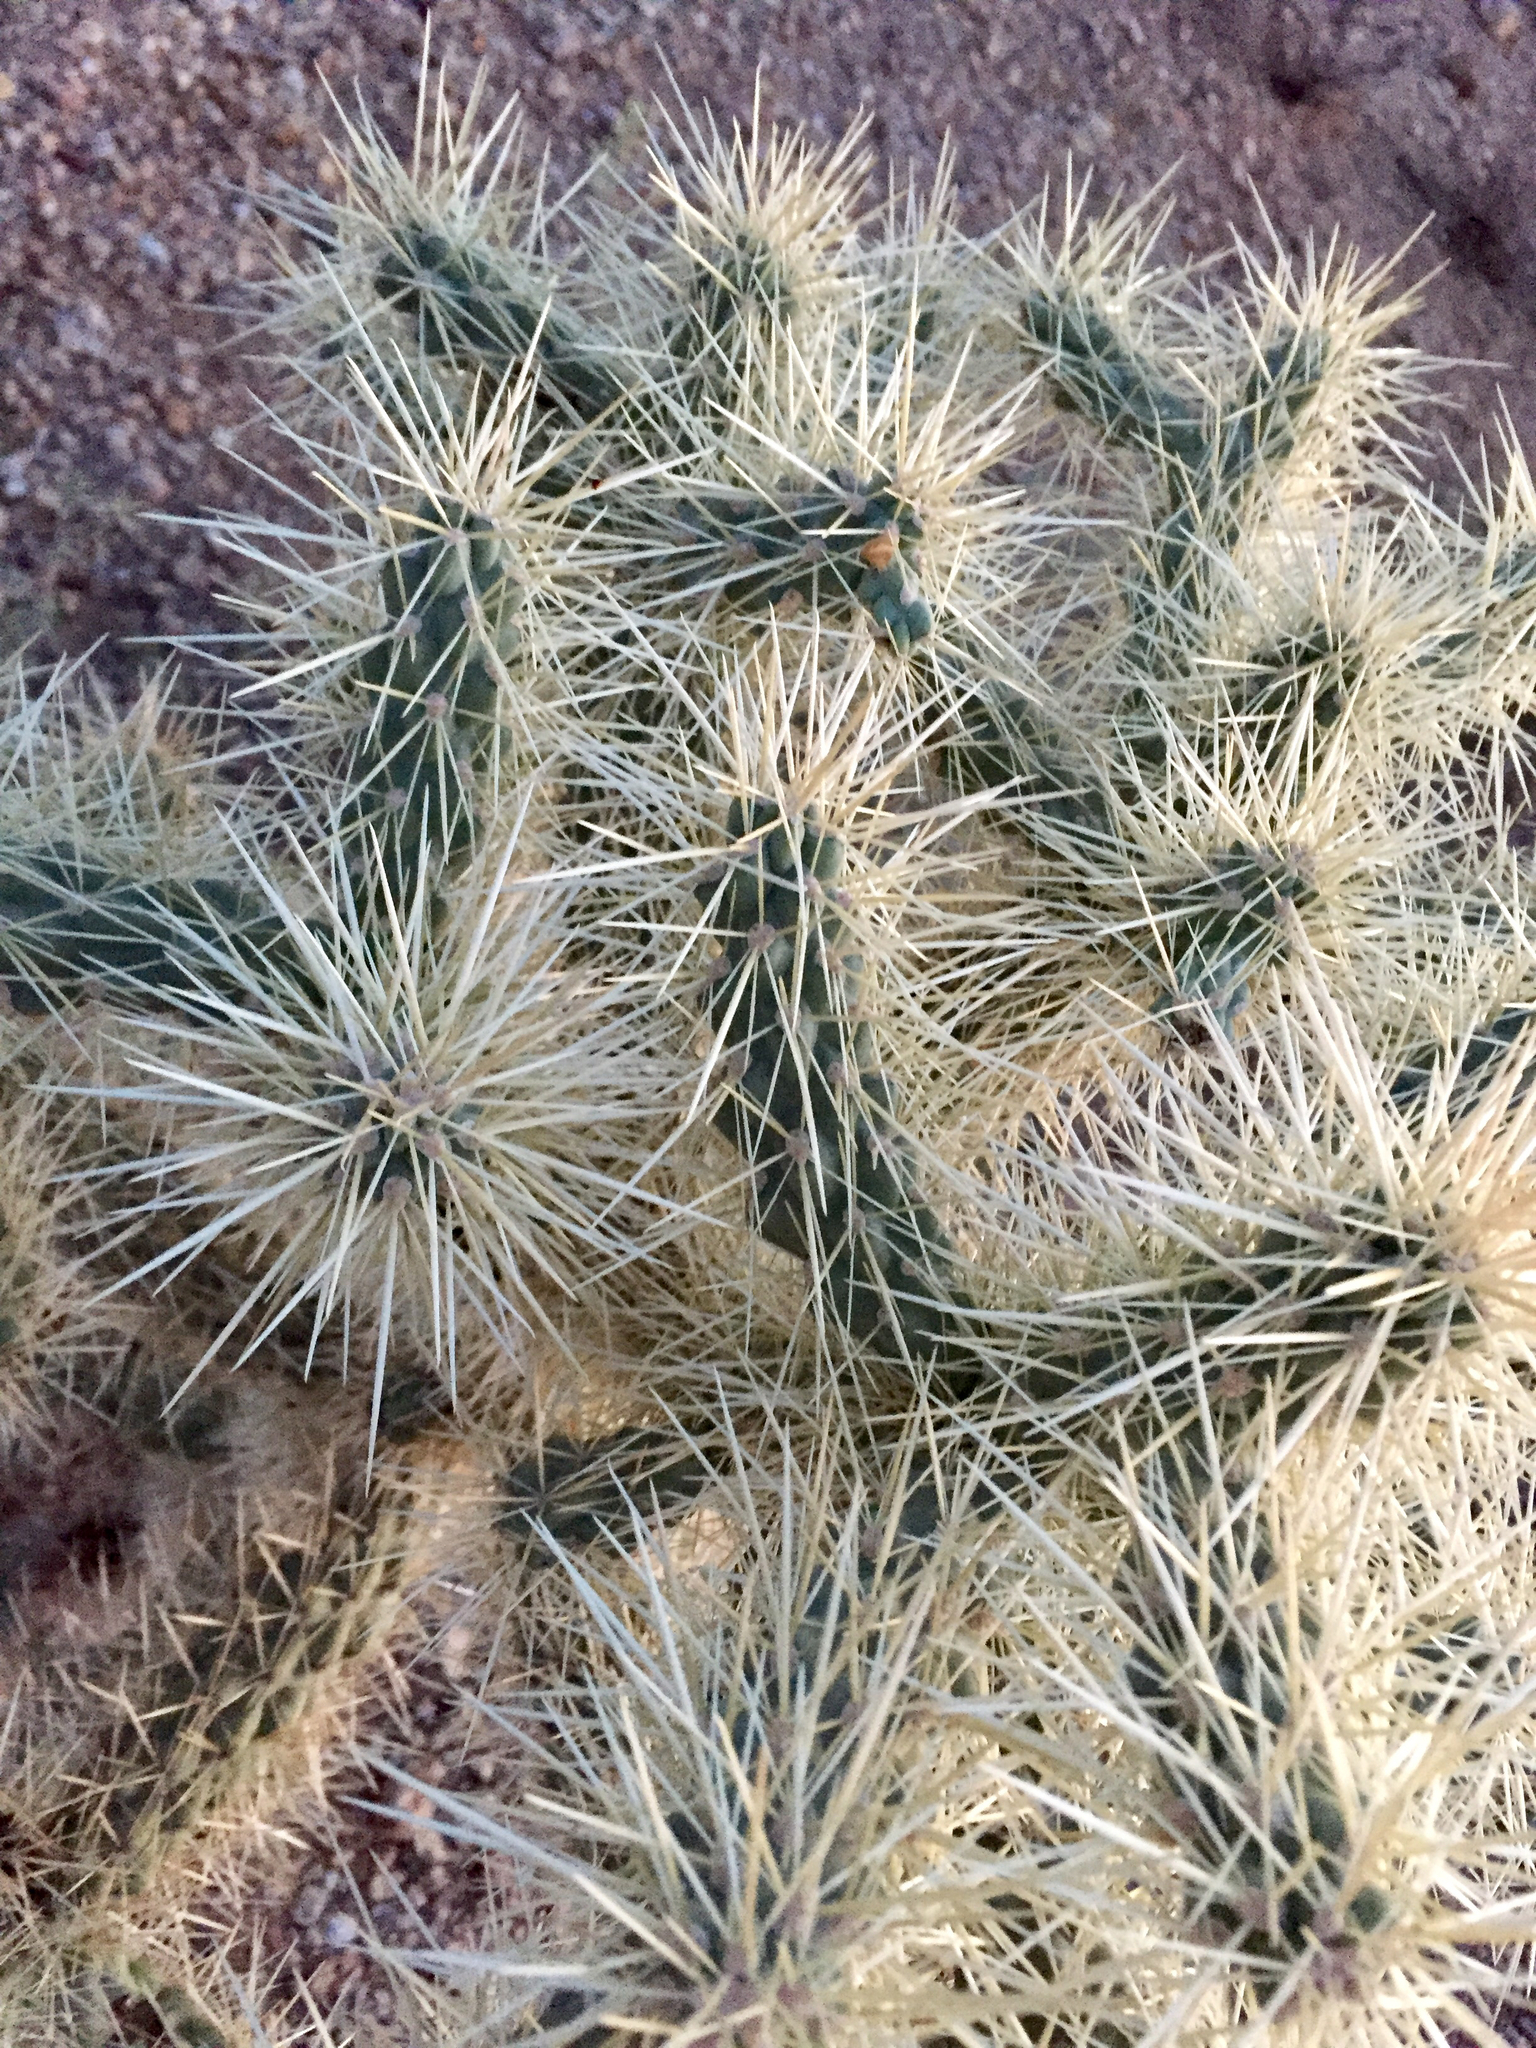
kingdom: Plantae
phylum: Tracheophyta
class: Magnoliopsida
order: Caryophyllales
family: Cactaceae
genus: Cylindropuntia
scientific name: Cylindropuntia fosbergii
